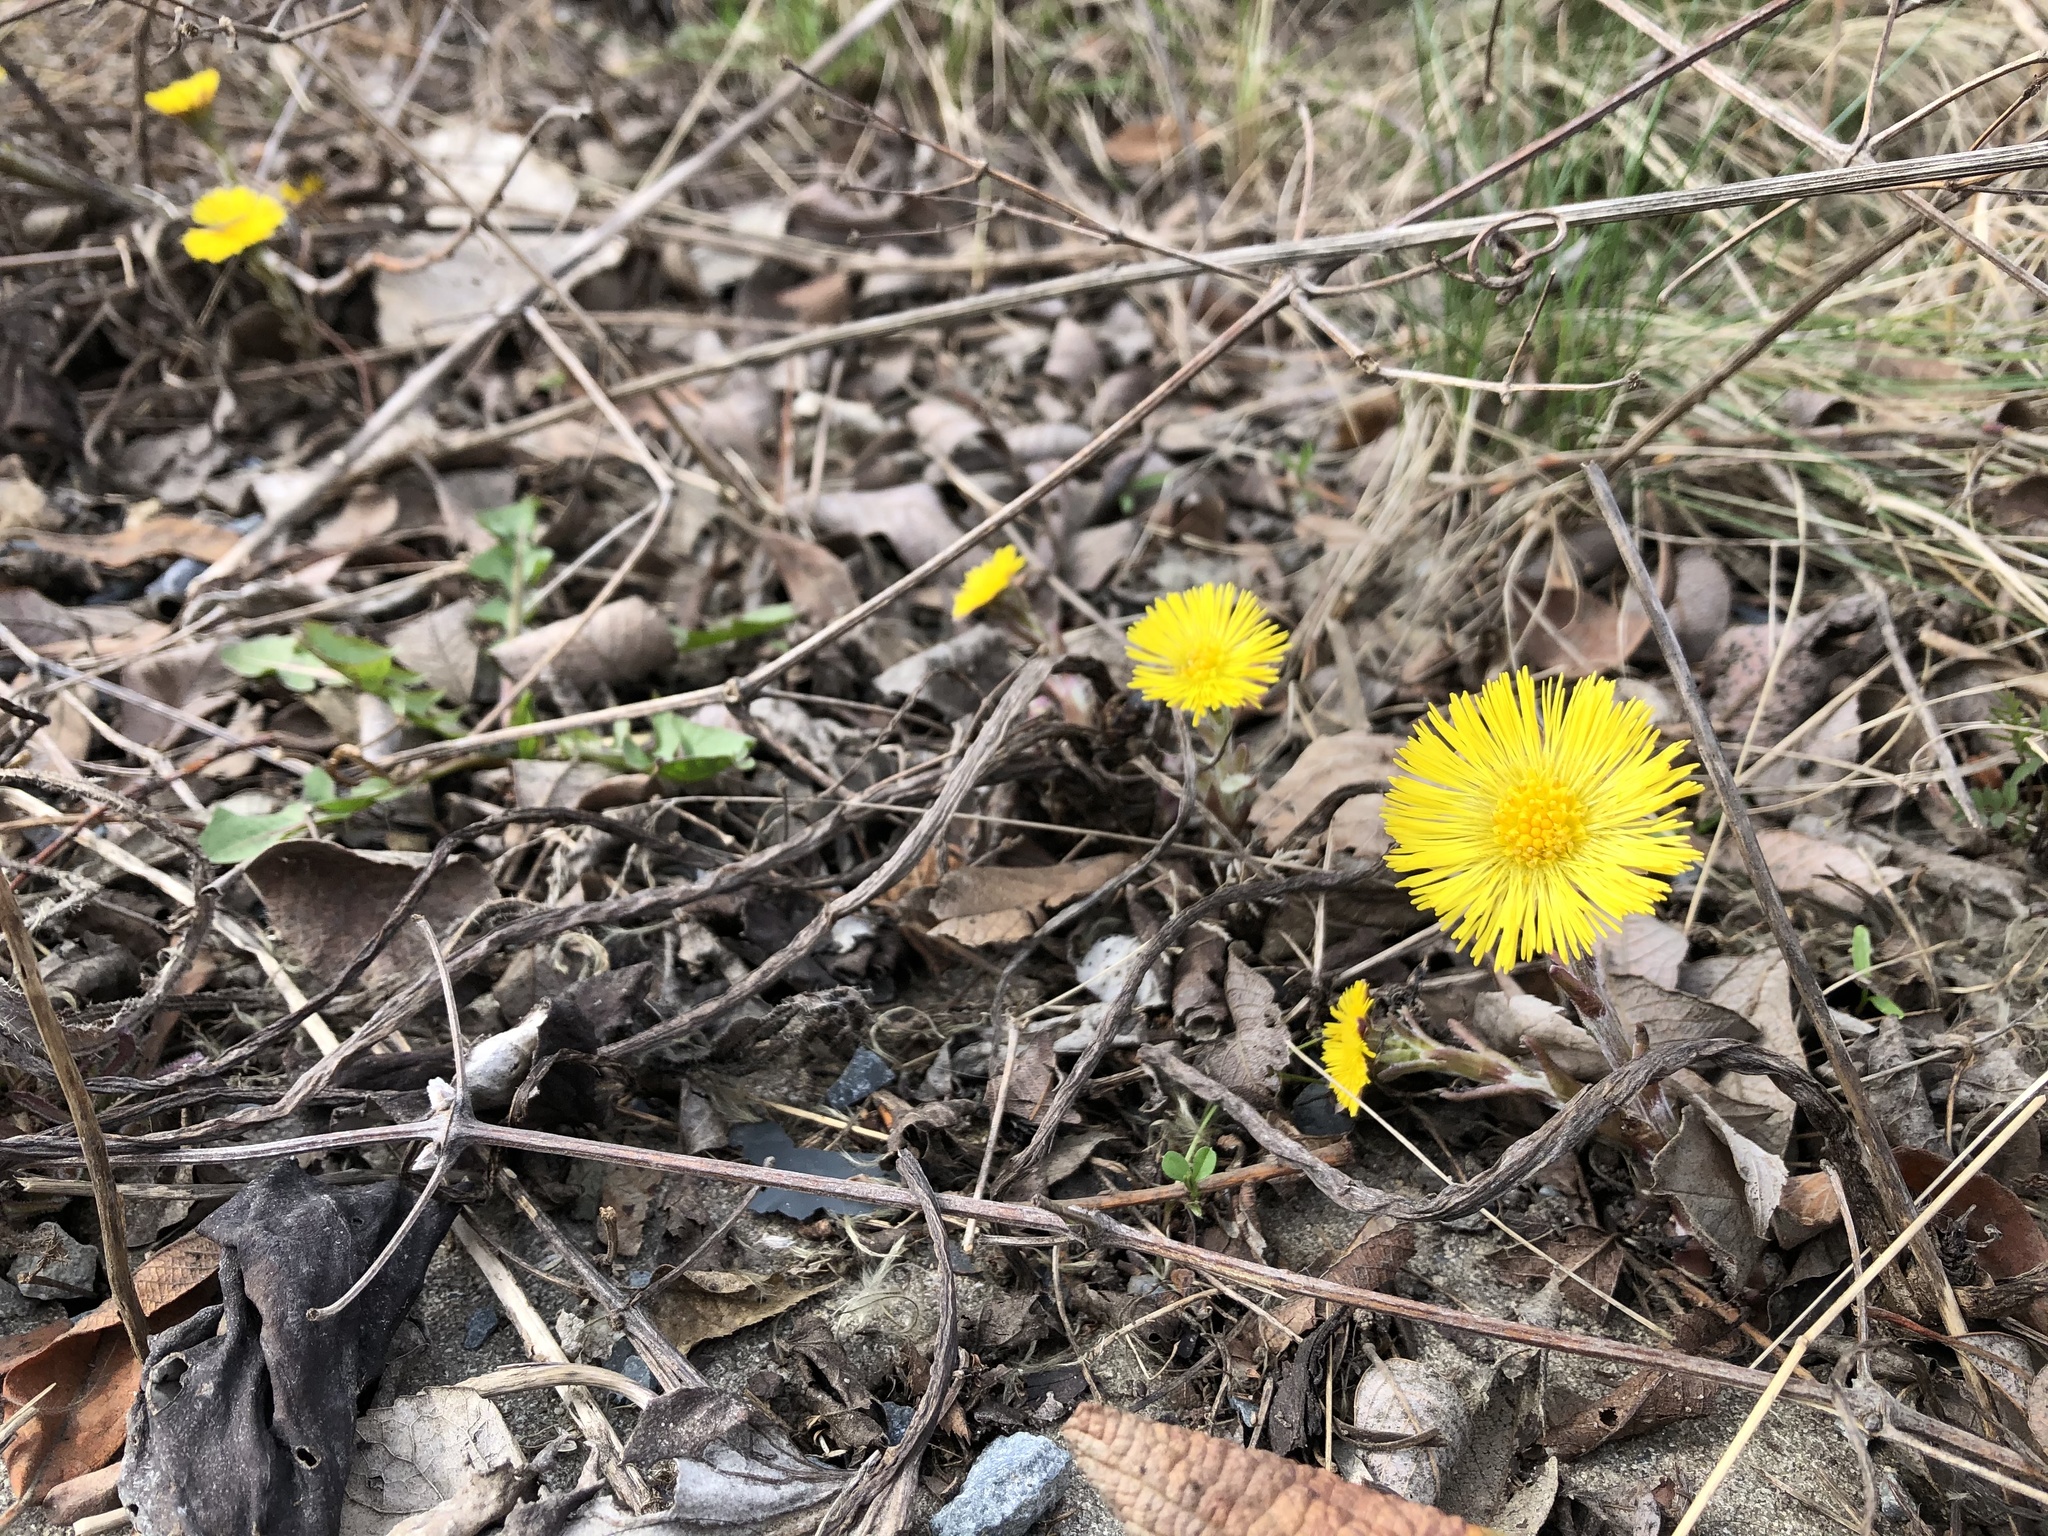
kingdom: Plantae
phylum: Tracheophyta
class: Magnoliopsida
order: Asterales
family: Asteraceae
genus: Tussilago
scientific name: Tussilago farfara
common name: Coltsfoot
